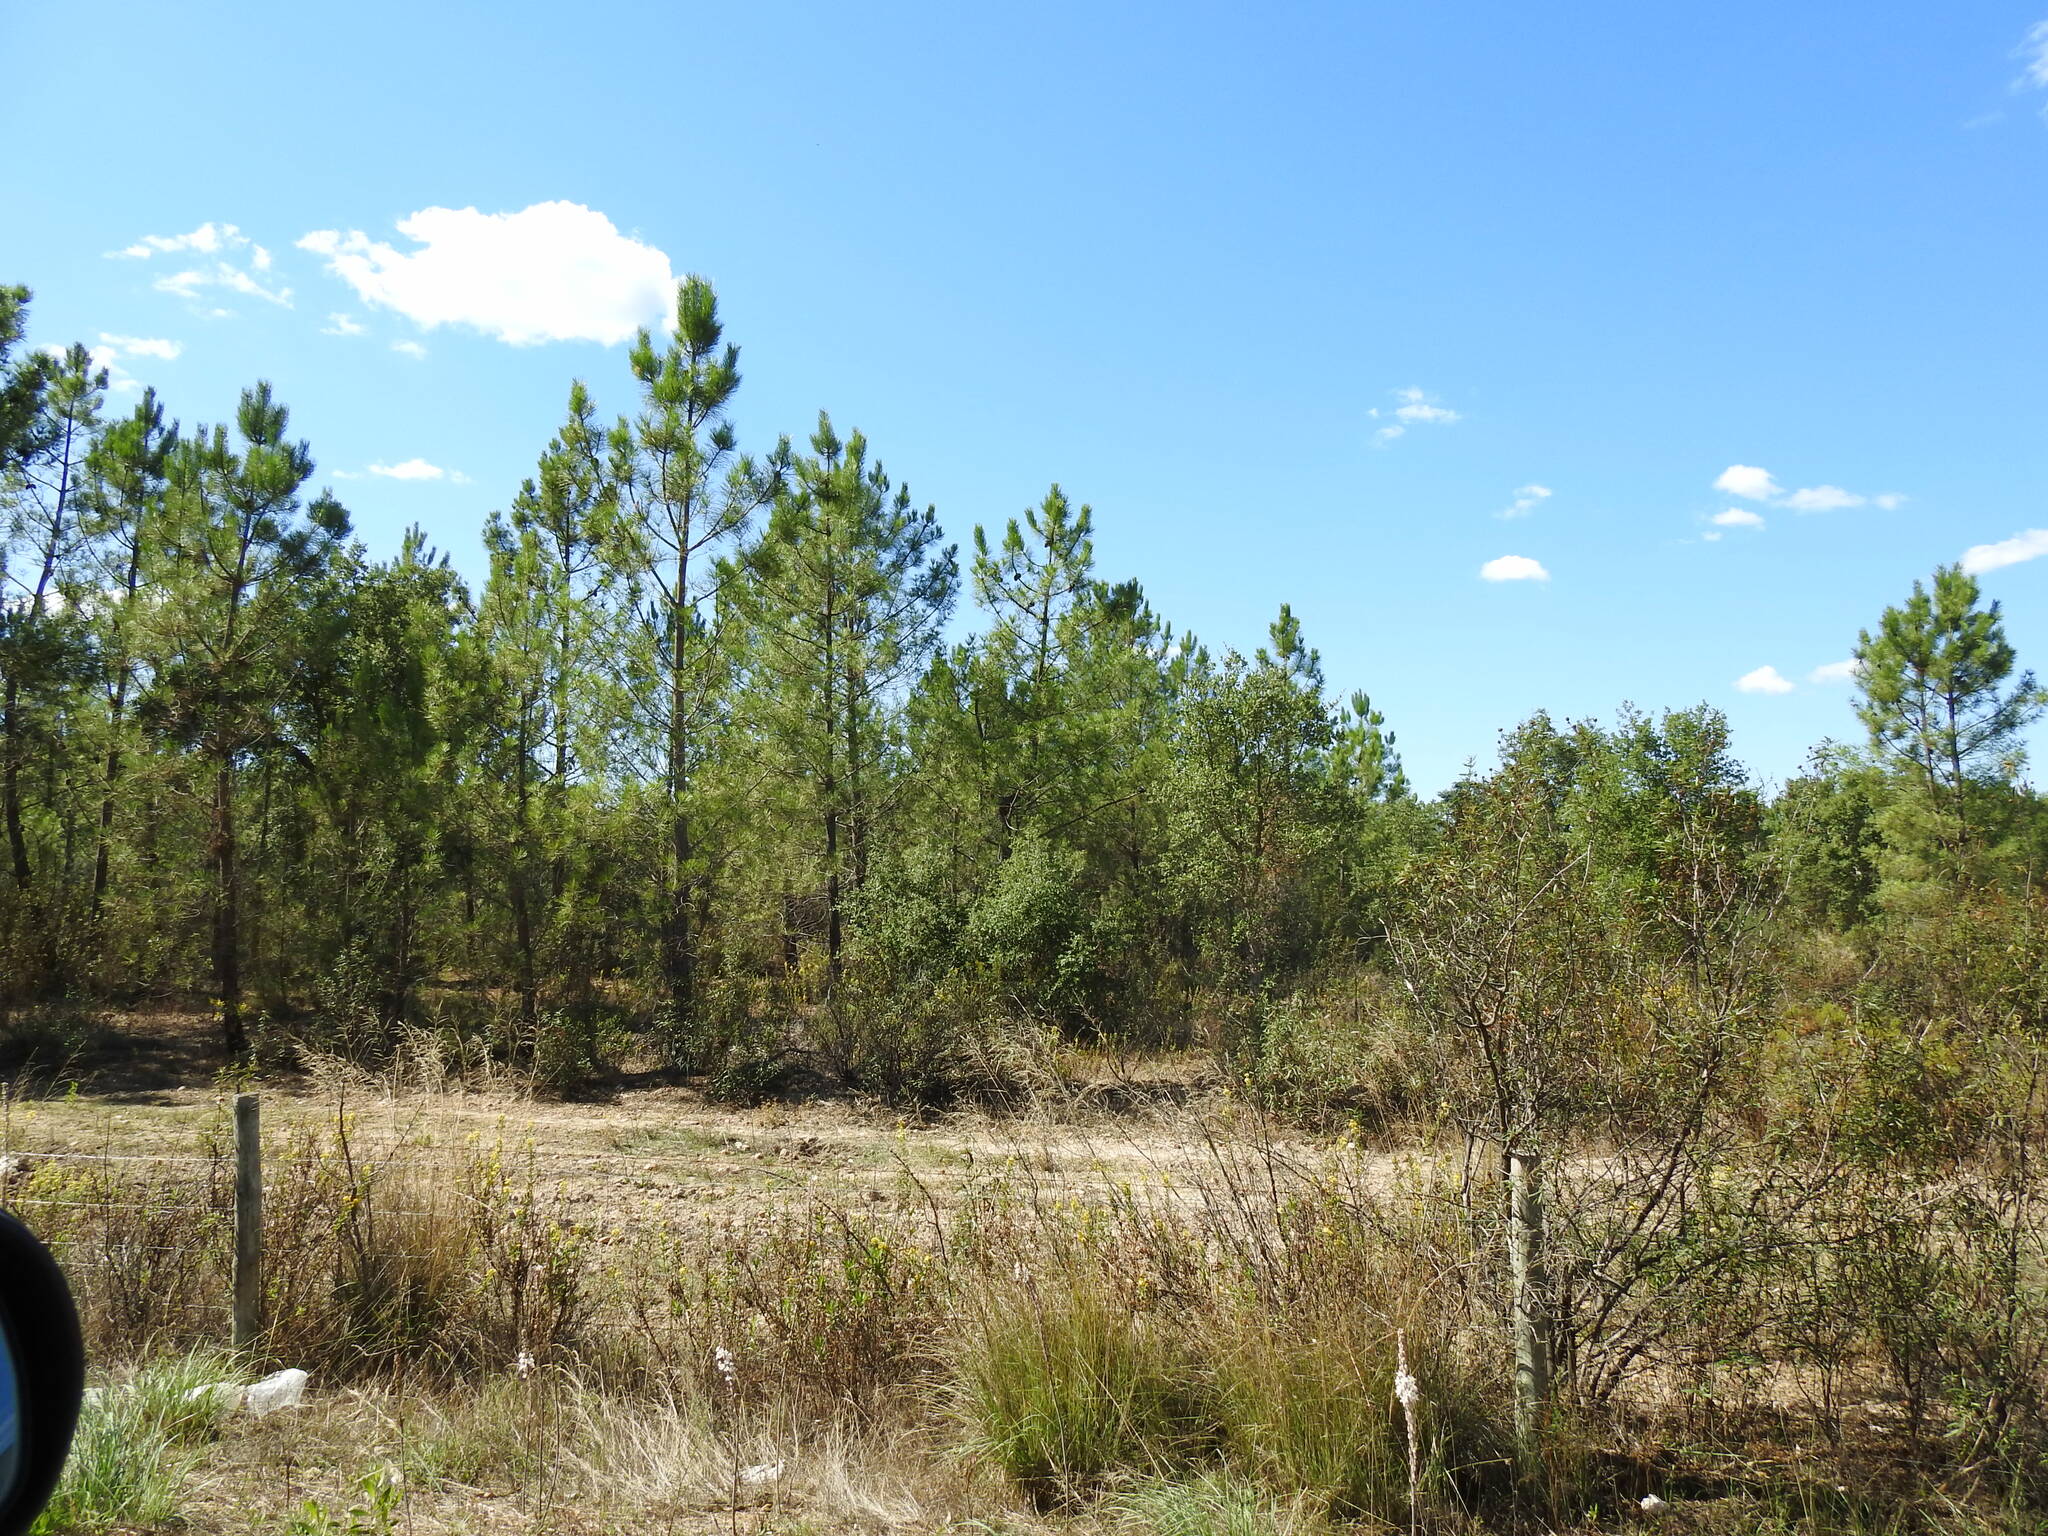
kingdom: Plantae
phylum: Tracheophyta
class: Pinopsida
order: Pinales
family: Pinaceae
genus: Pinus
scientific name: Pinus pinaster
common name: Maritime pine
